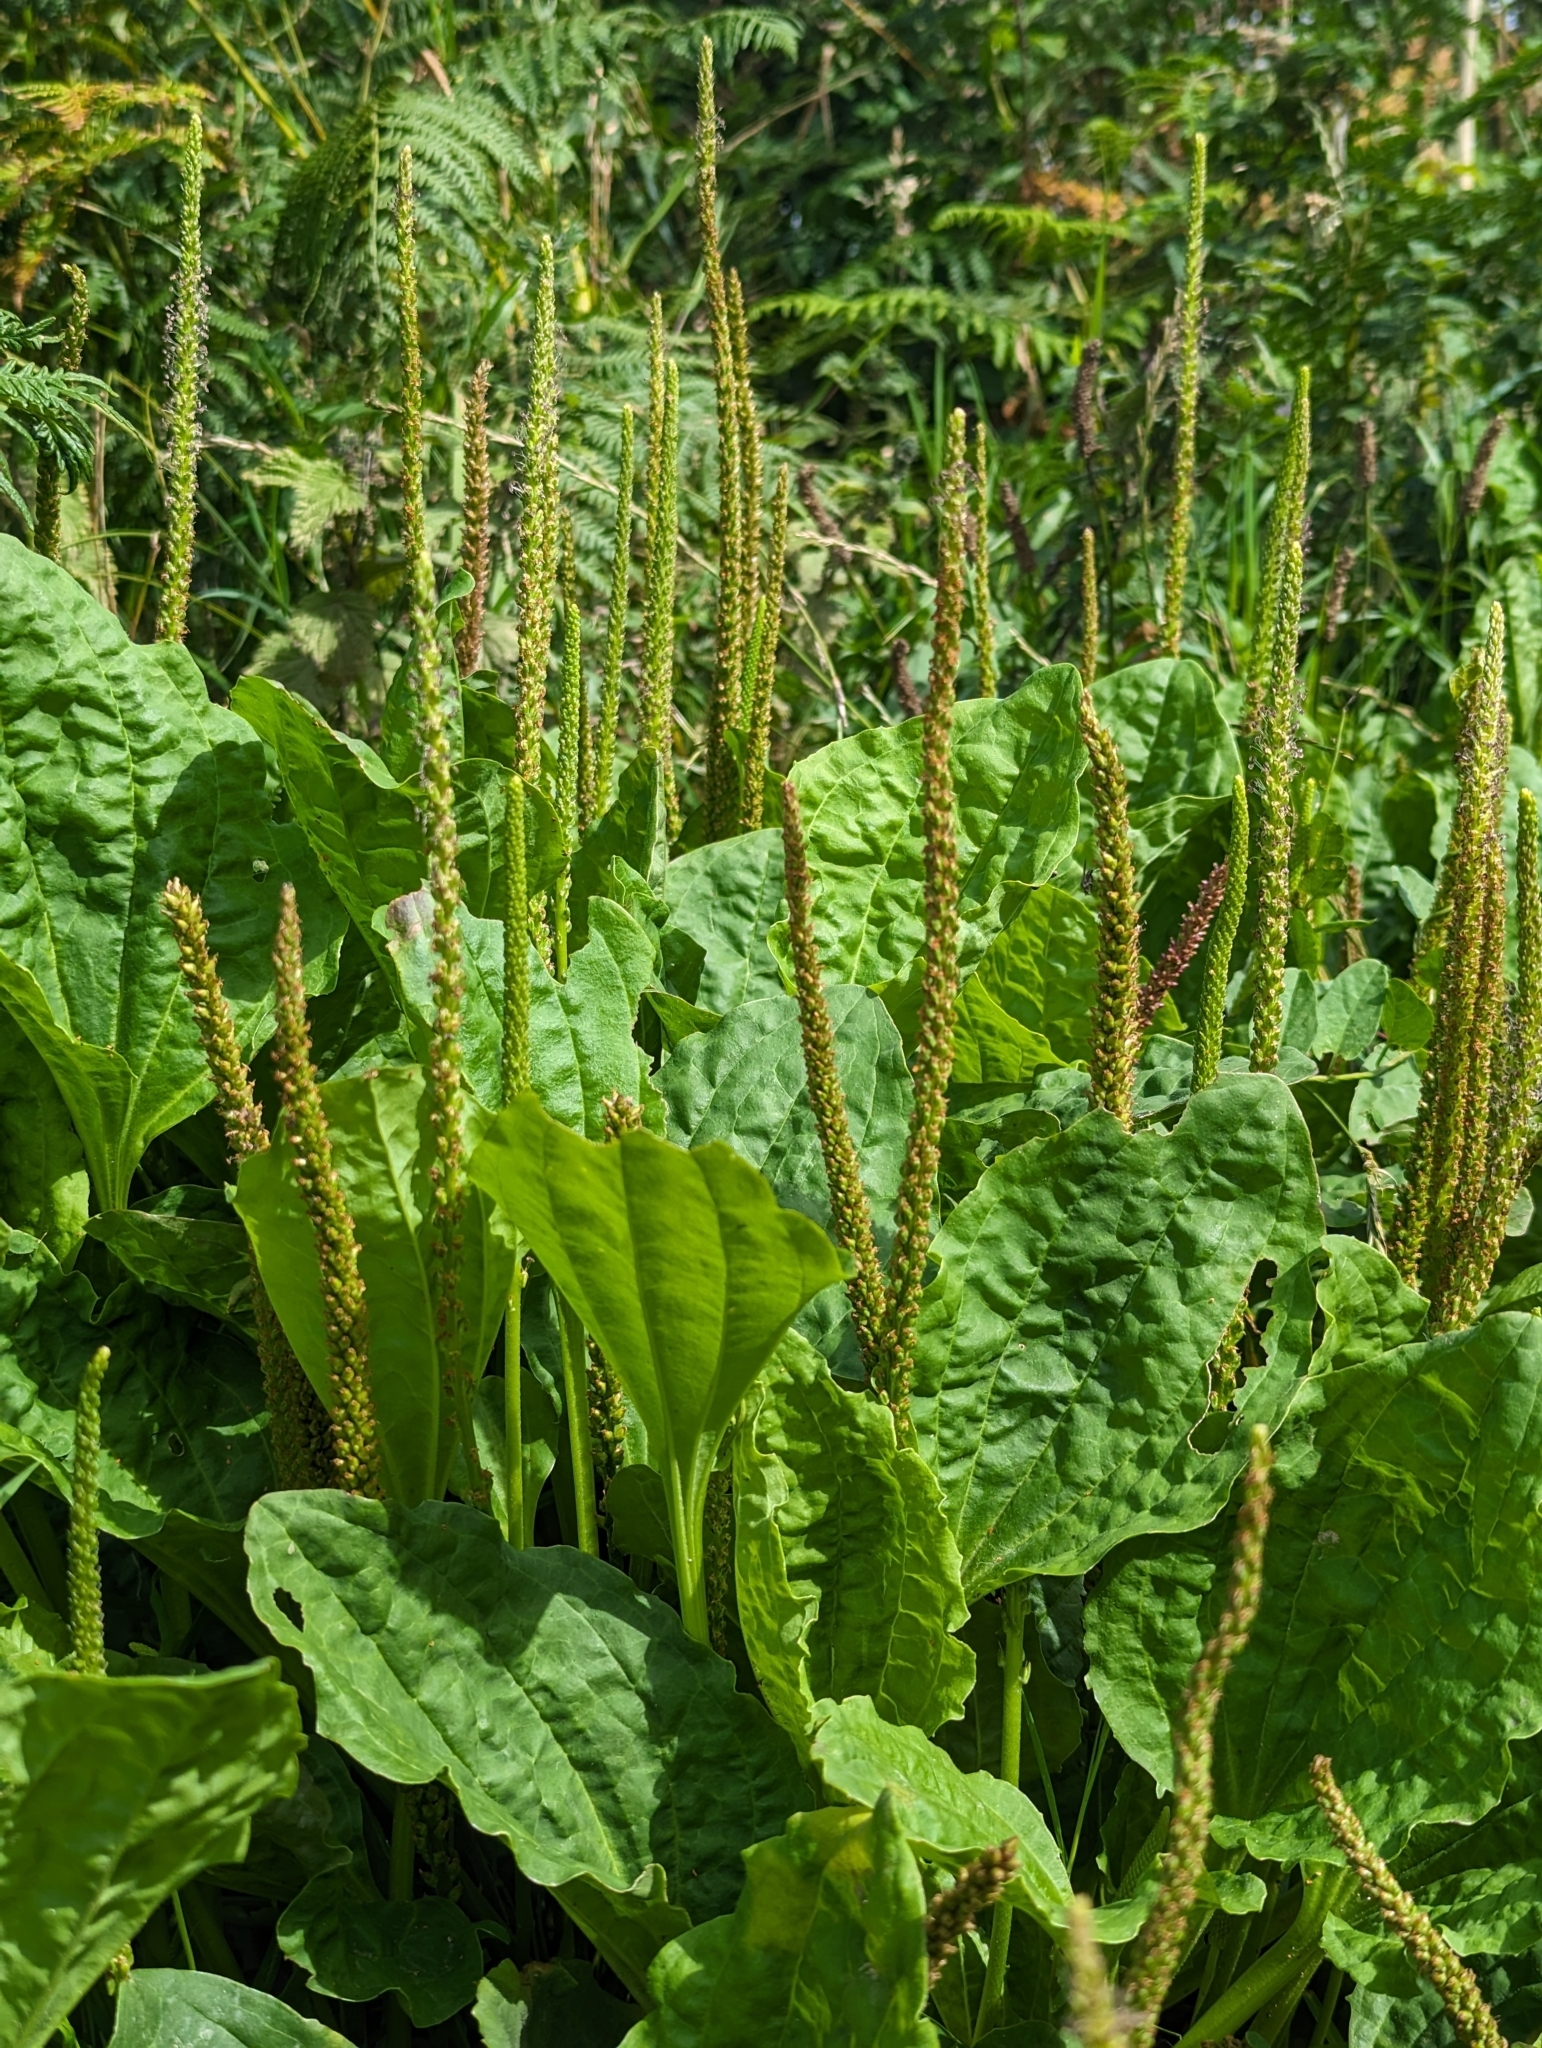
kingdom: Plantae
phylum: Tracheophyta
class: Magnoliopsida
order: Lamiales
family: Plantaginaceae
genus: Plantago
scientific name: Plantago major
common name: Common plantain
